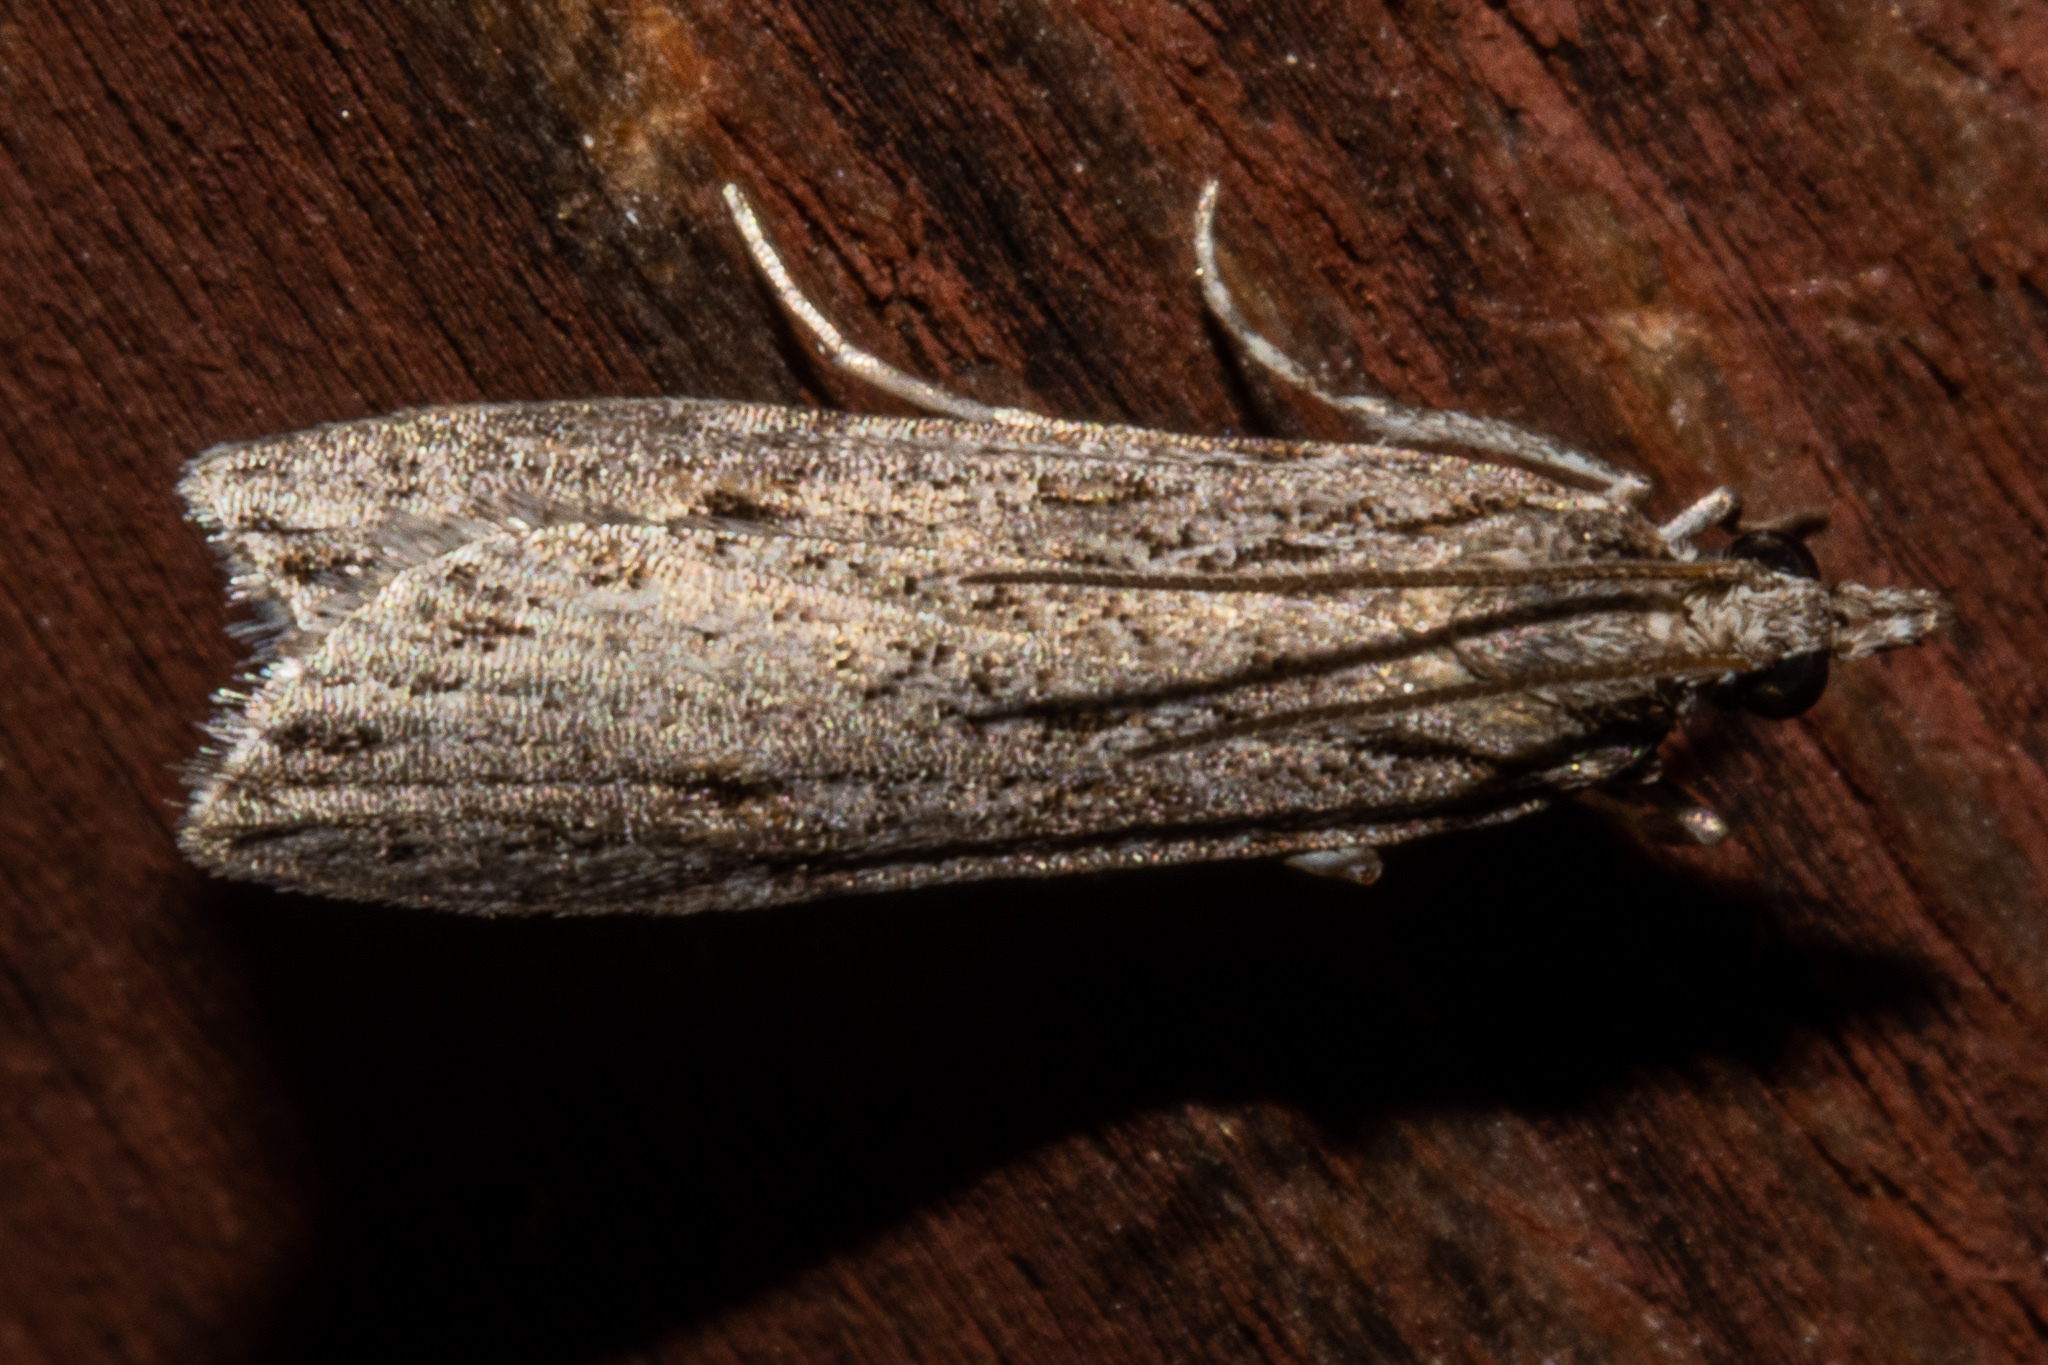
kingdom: Animalia
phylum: Arthropoda
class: Insecta
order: Lepidoptera
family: Crambidae
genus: Scoparia
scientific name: Scoparia petrina
